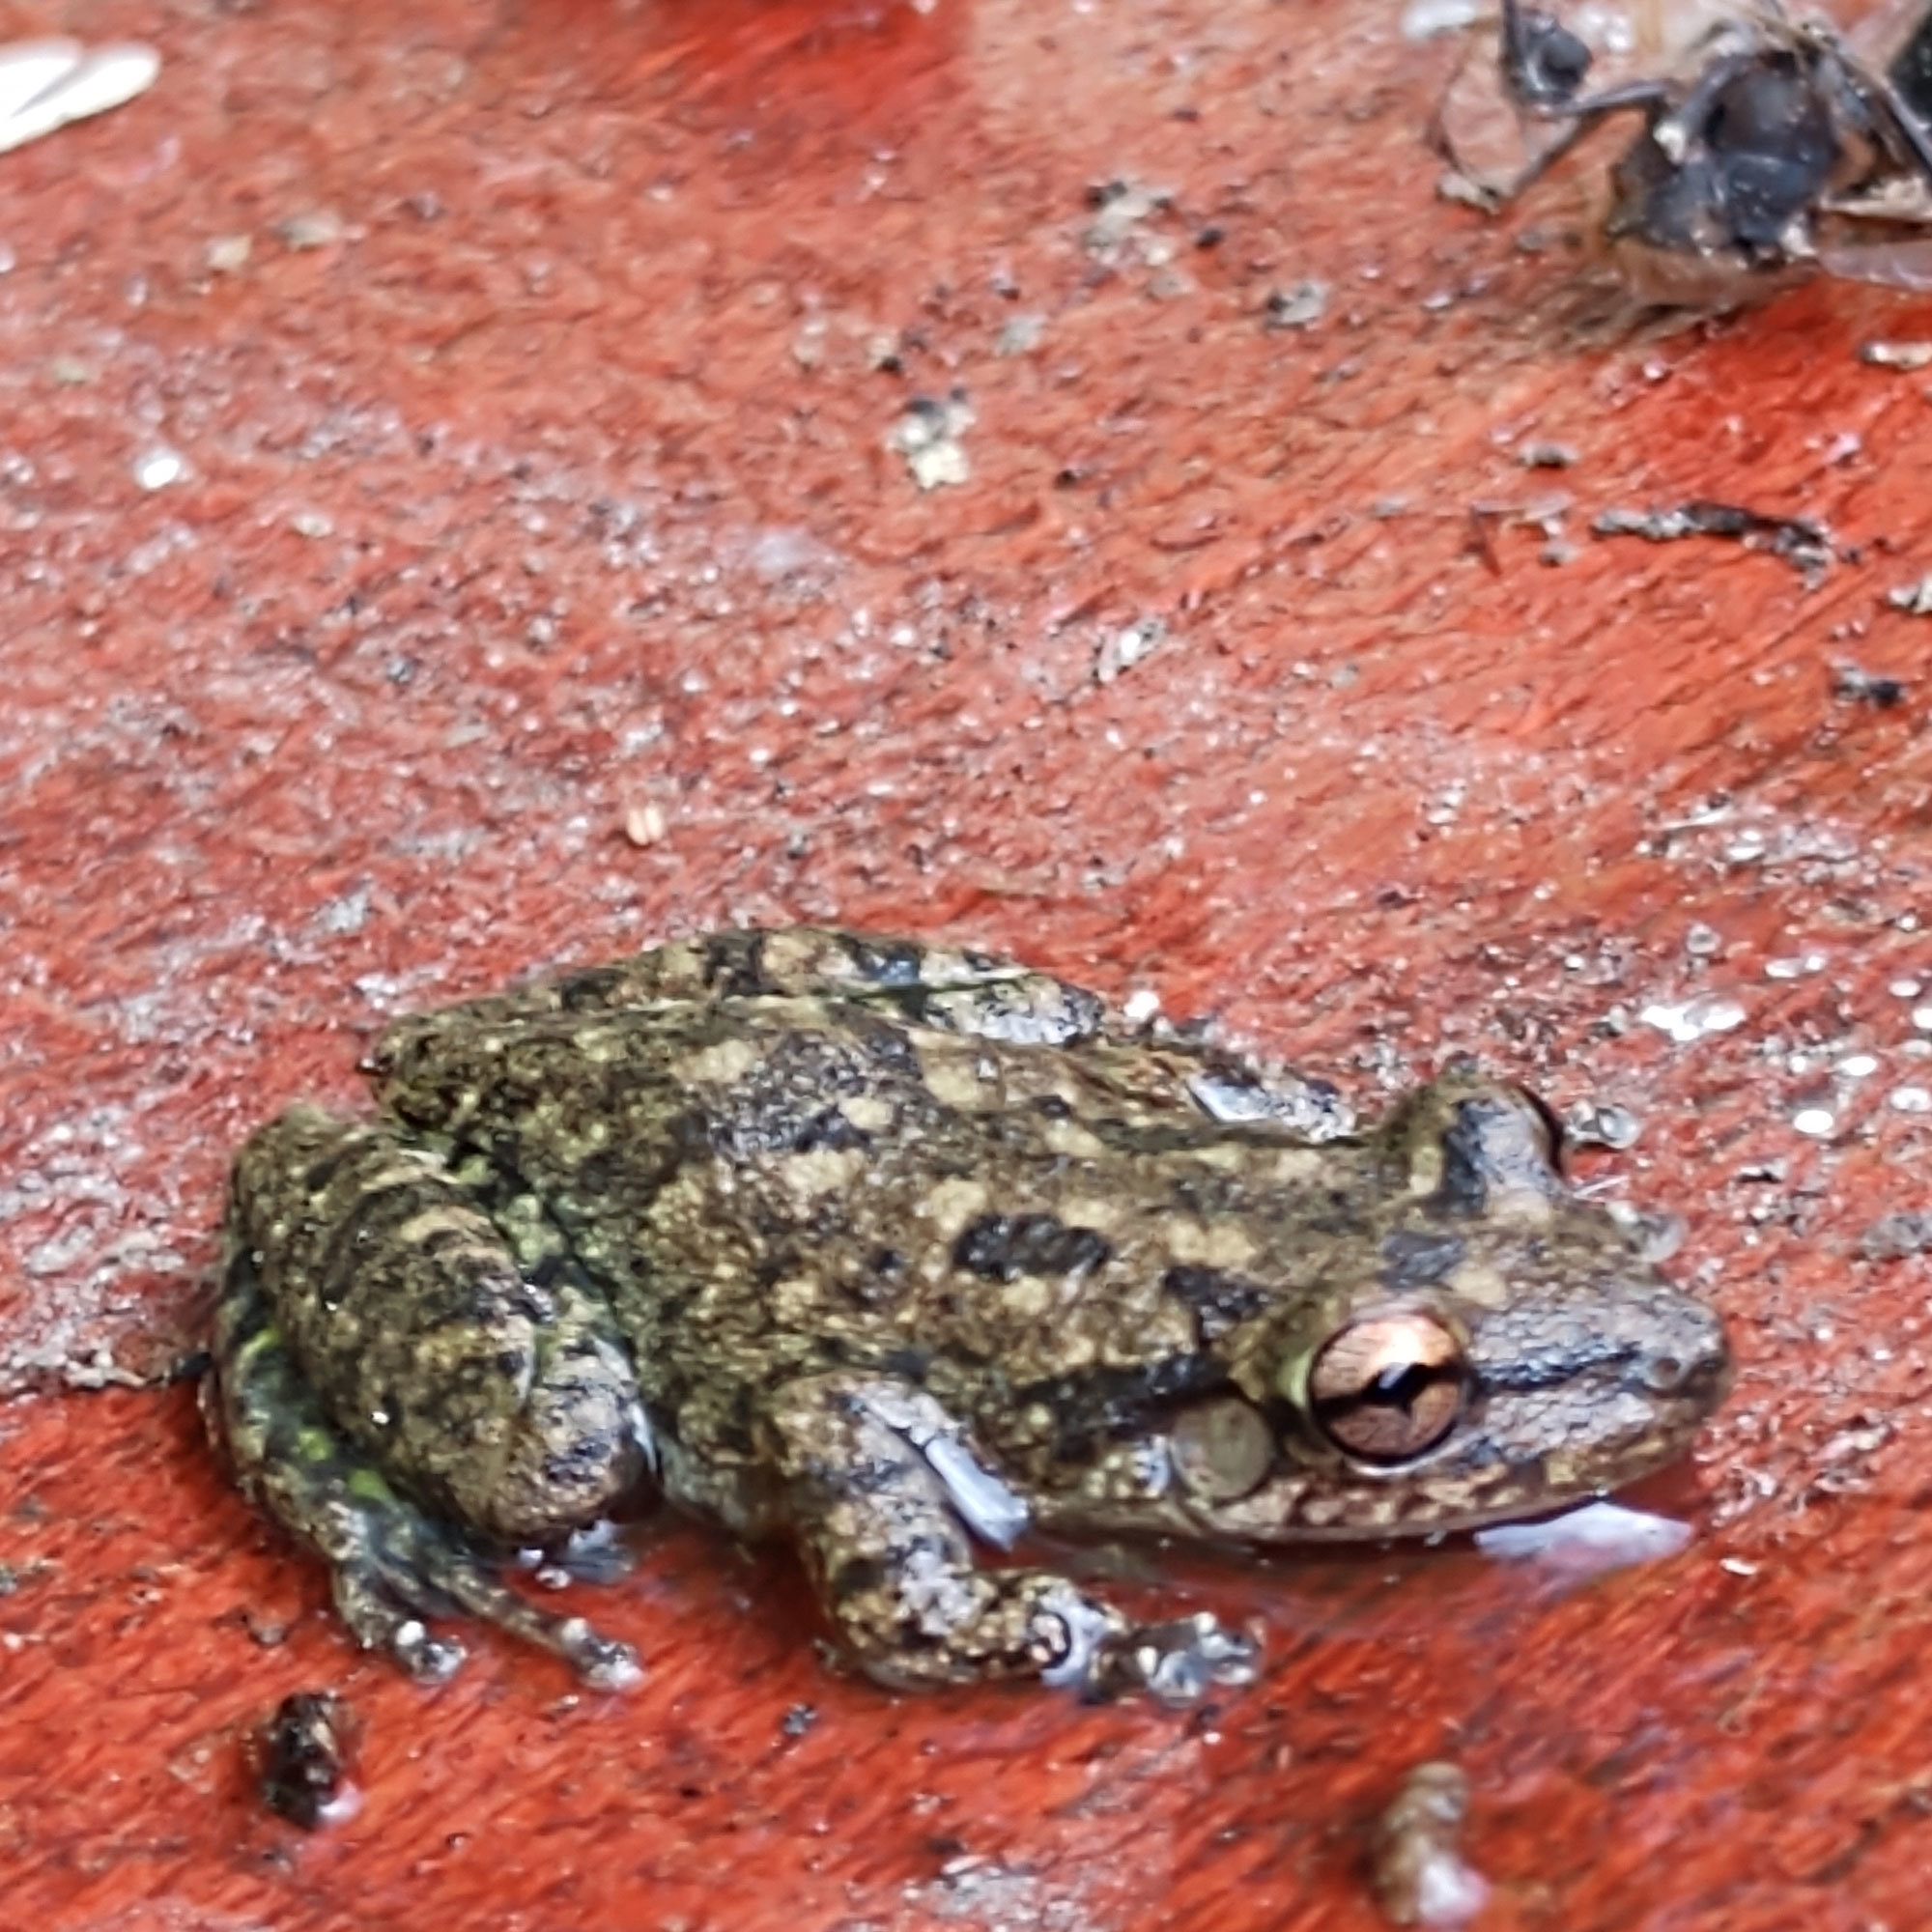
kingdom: Animalia
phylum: Chordata
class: Amphibia
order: Anura
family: Hylidae
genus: Scinax
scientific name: Scinax x-signatus
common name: Venezuela snouted treefrog
